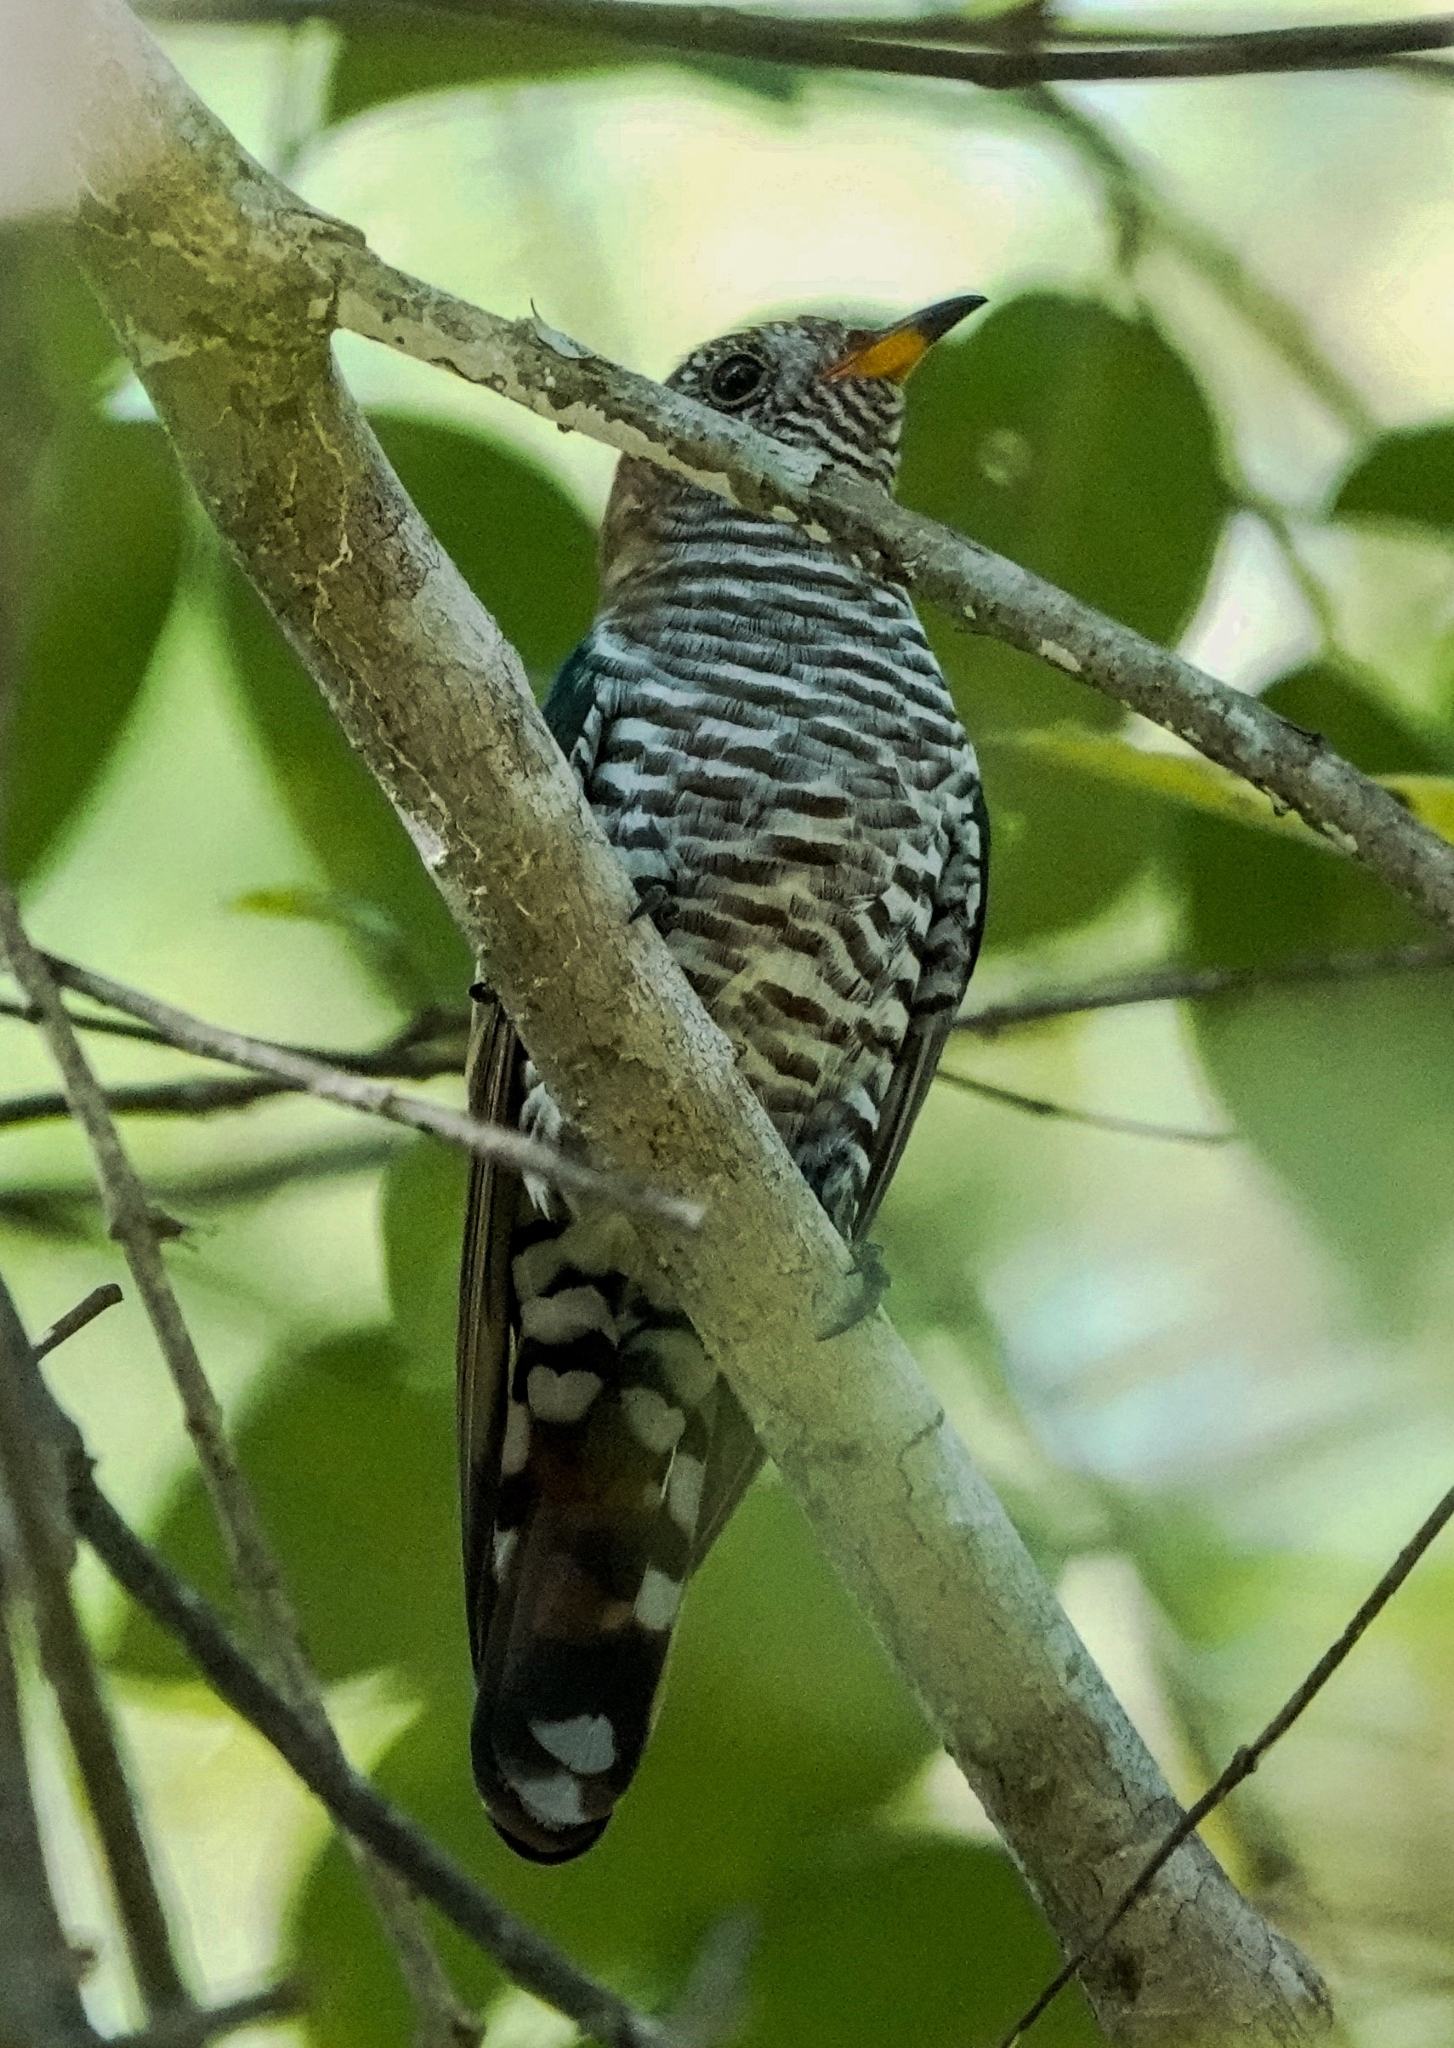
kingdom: Animalia
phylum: Chordata
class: Aves
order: Cuculiformes
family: Cuculidae
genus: Chrysococcyx
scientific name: Chrysococcyx maculatus
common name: Asian emerald cuckoo
